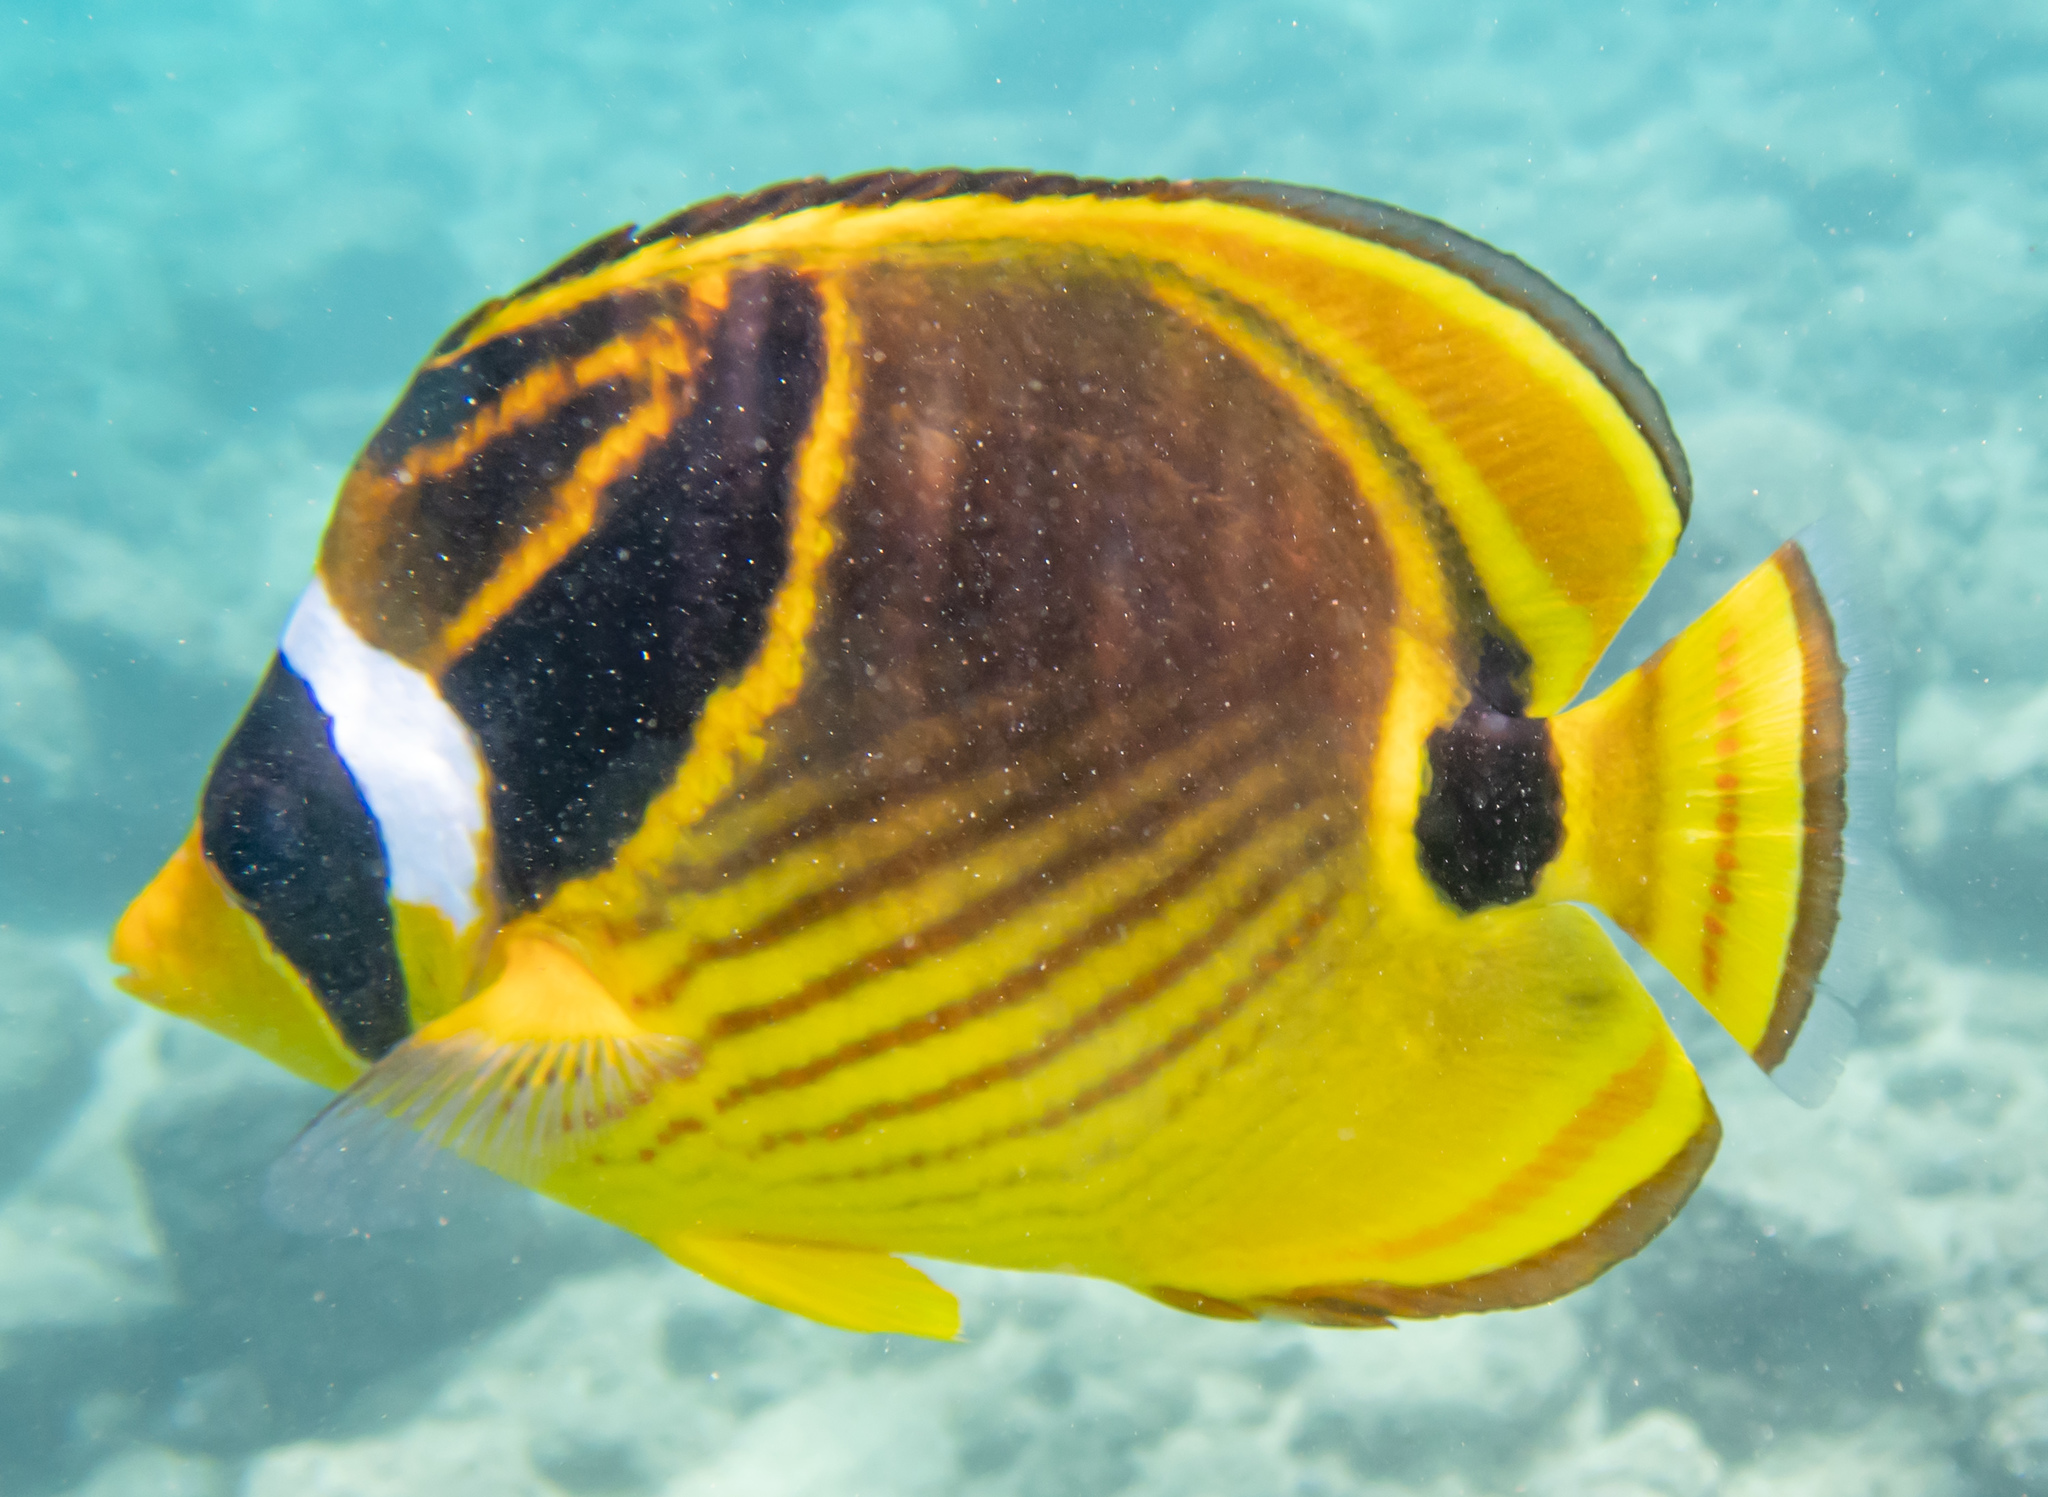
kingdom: Animalia
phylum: Chordata
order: Perciformes
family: Chaetodontidae
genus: Chaetodon
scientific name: Chaetodon lunula
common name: Raccoon butterflyfish
